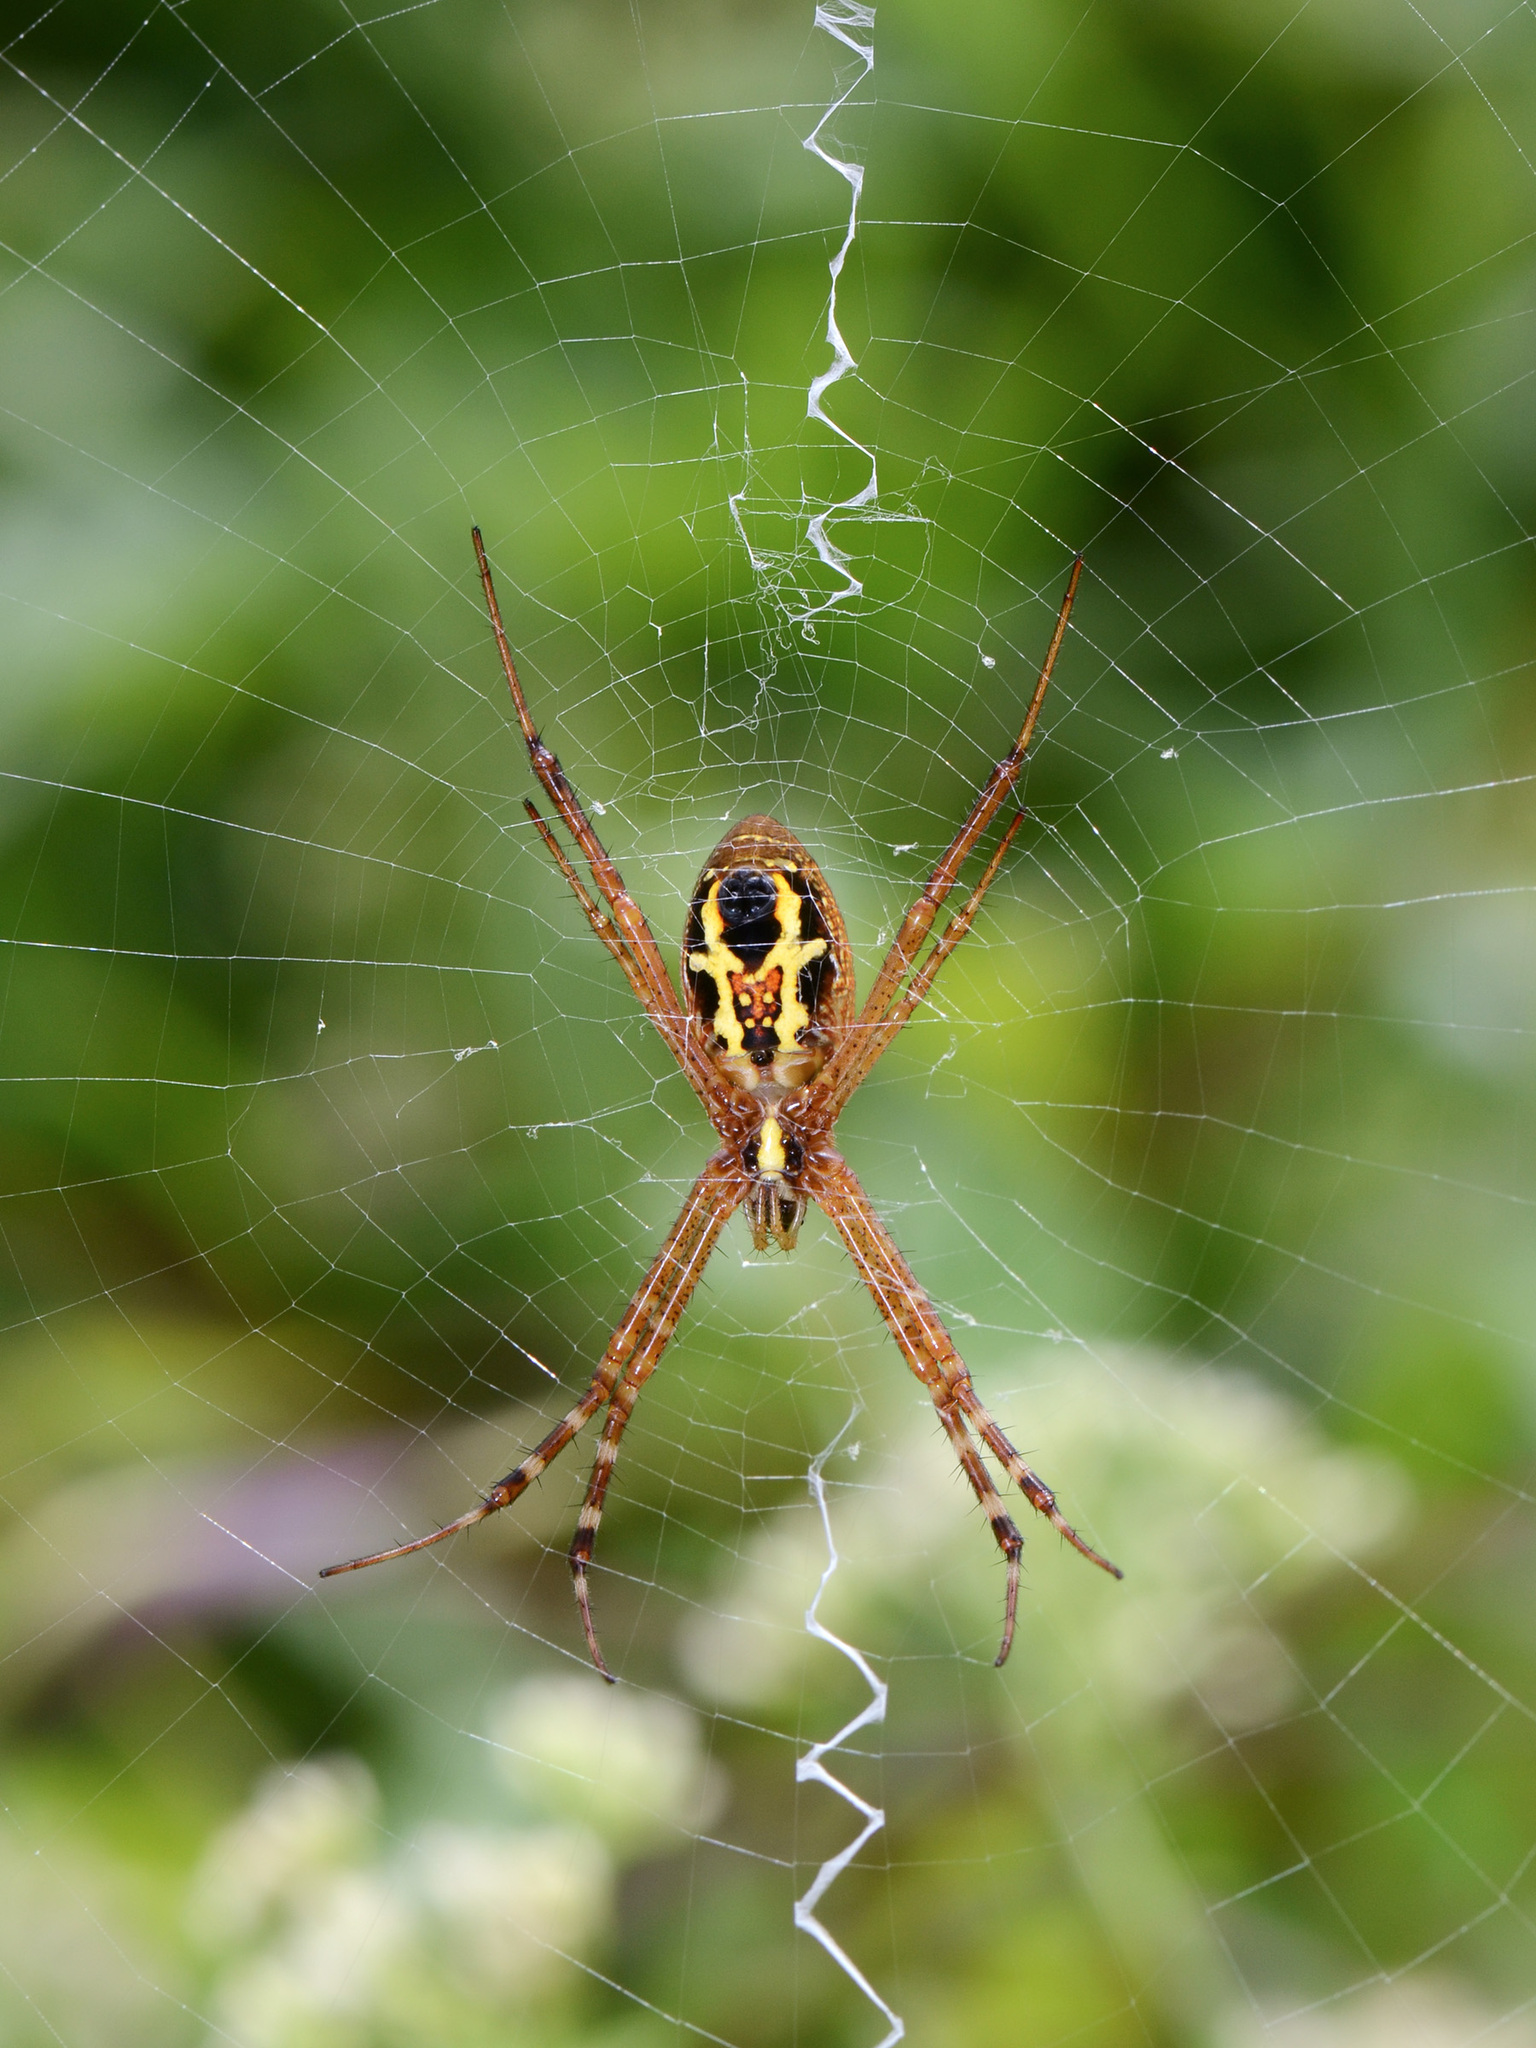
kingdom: Animalia
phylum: Arthropoda
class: Arachnida
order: Araneae
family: Araneidae
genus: Argiope
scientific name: Argiope catenulata
